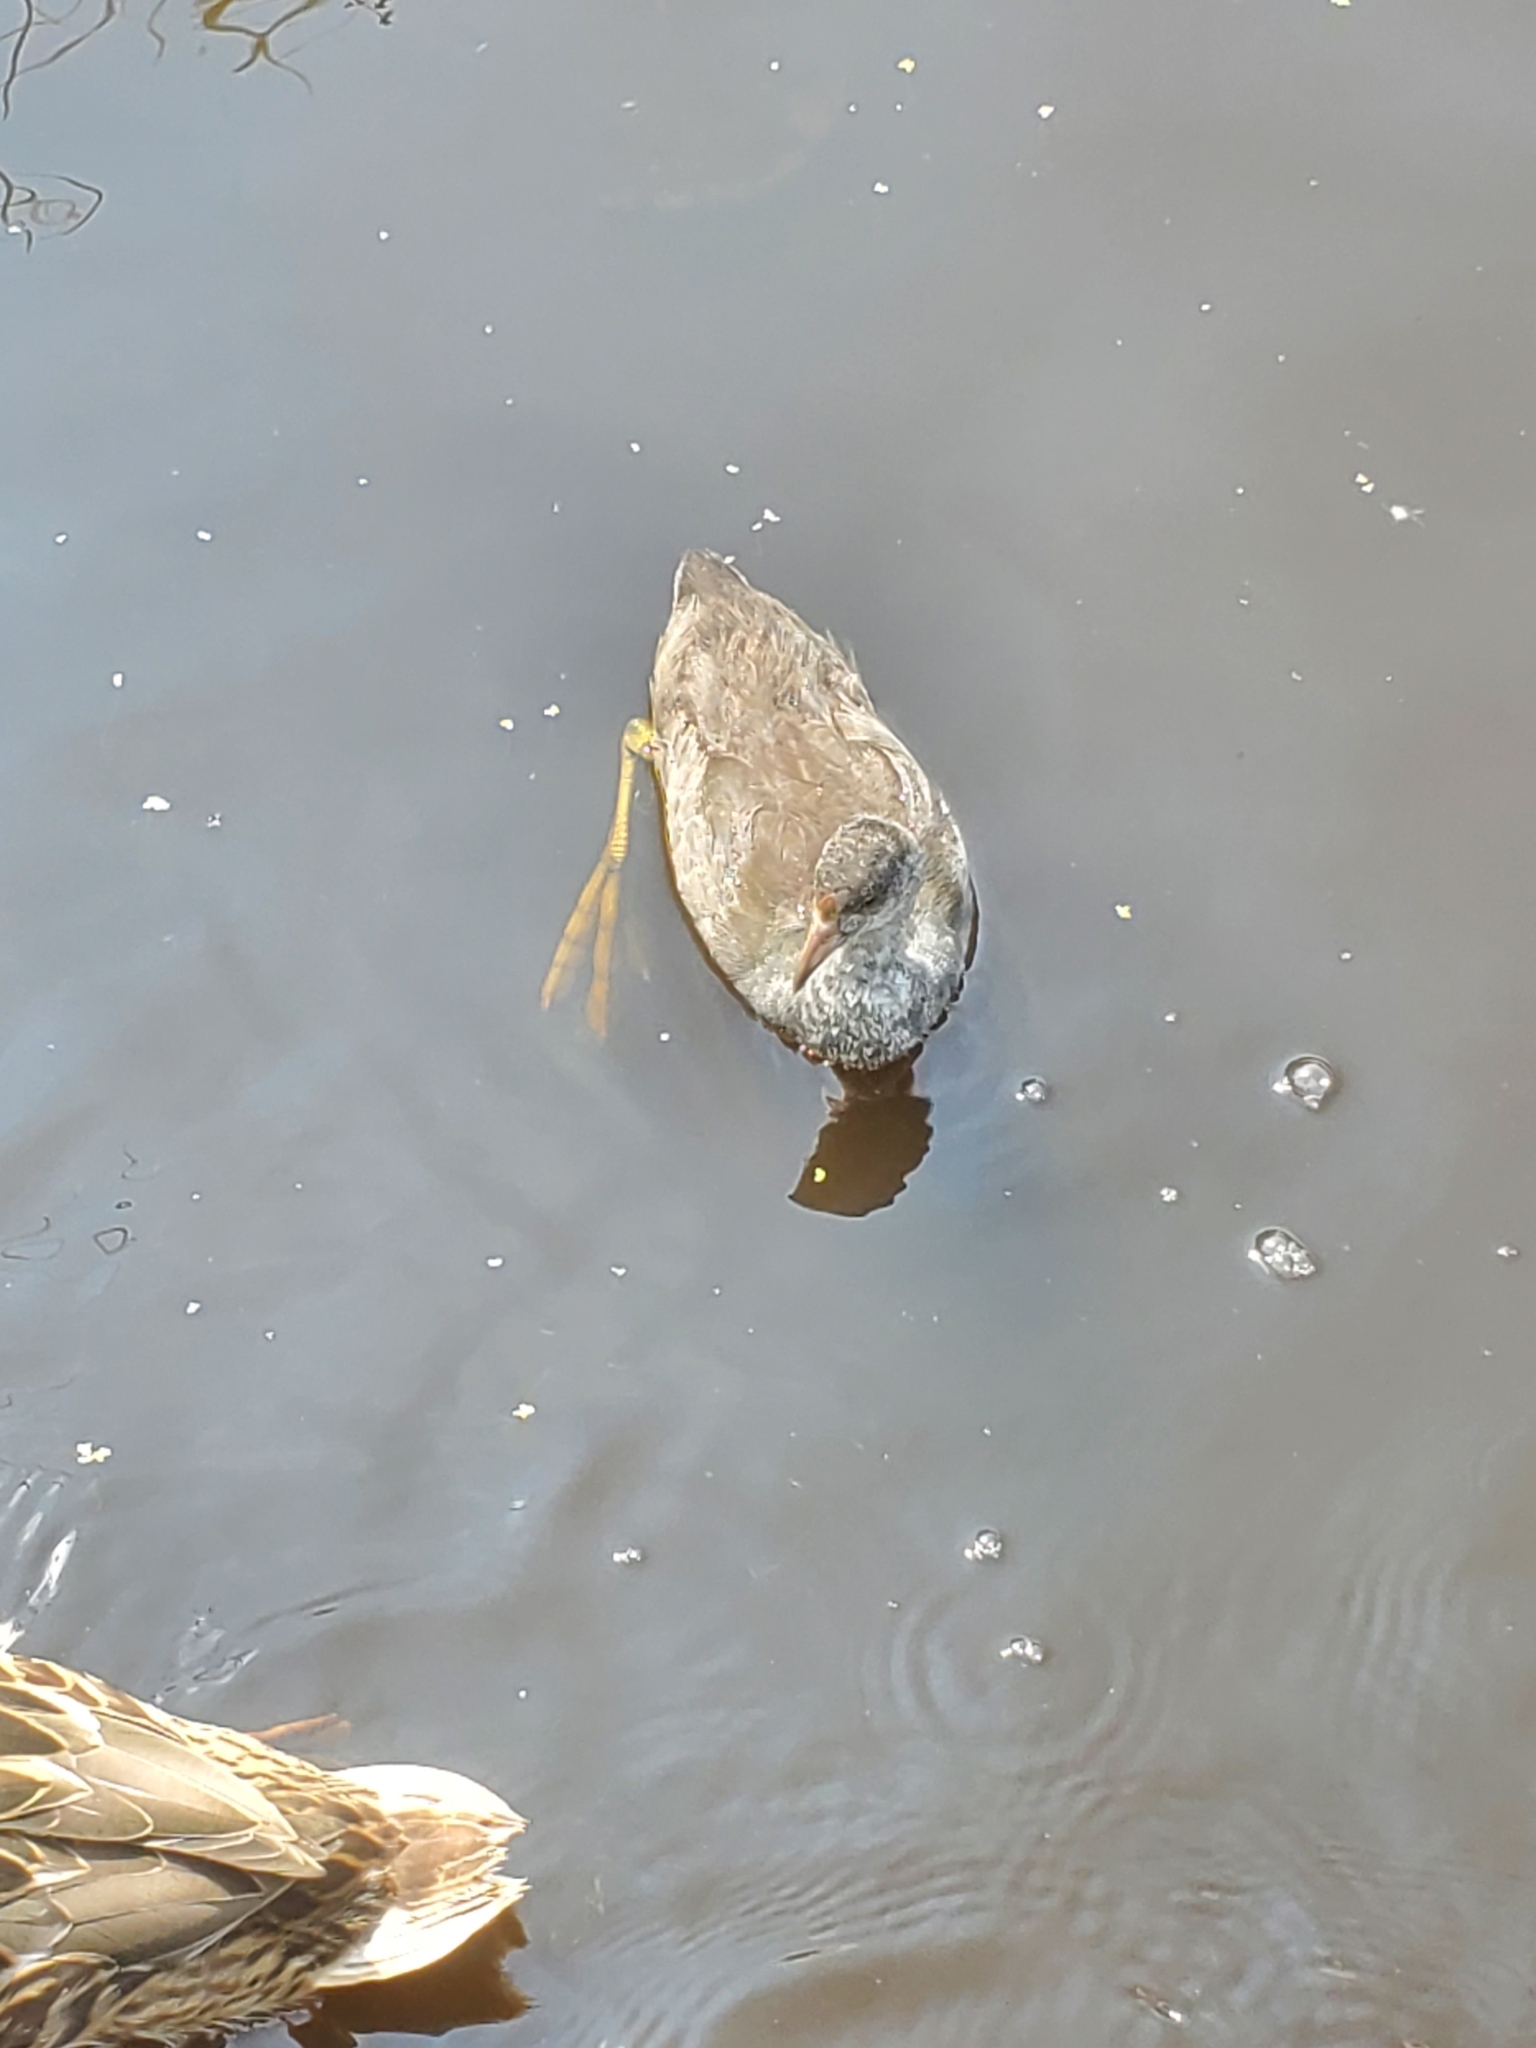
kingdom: Animalia
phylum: Chordata
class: Aves
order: Gruiformes
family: Rallidae
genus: Fulica
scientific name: Fulica americana
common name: American coot
